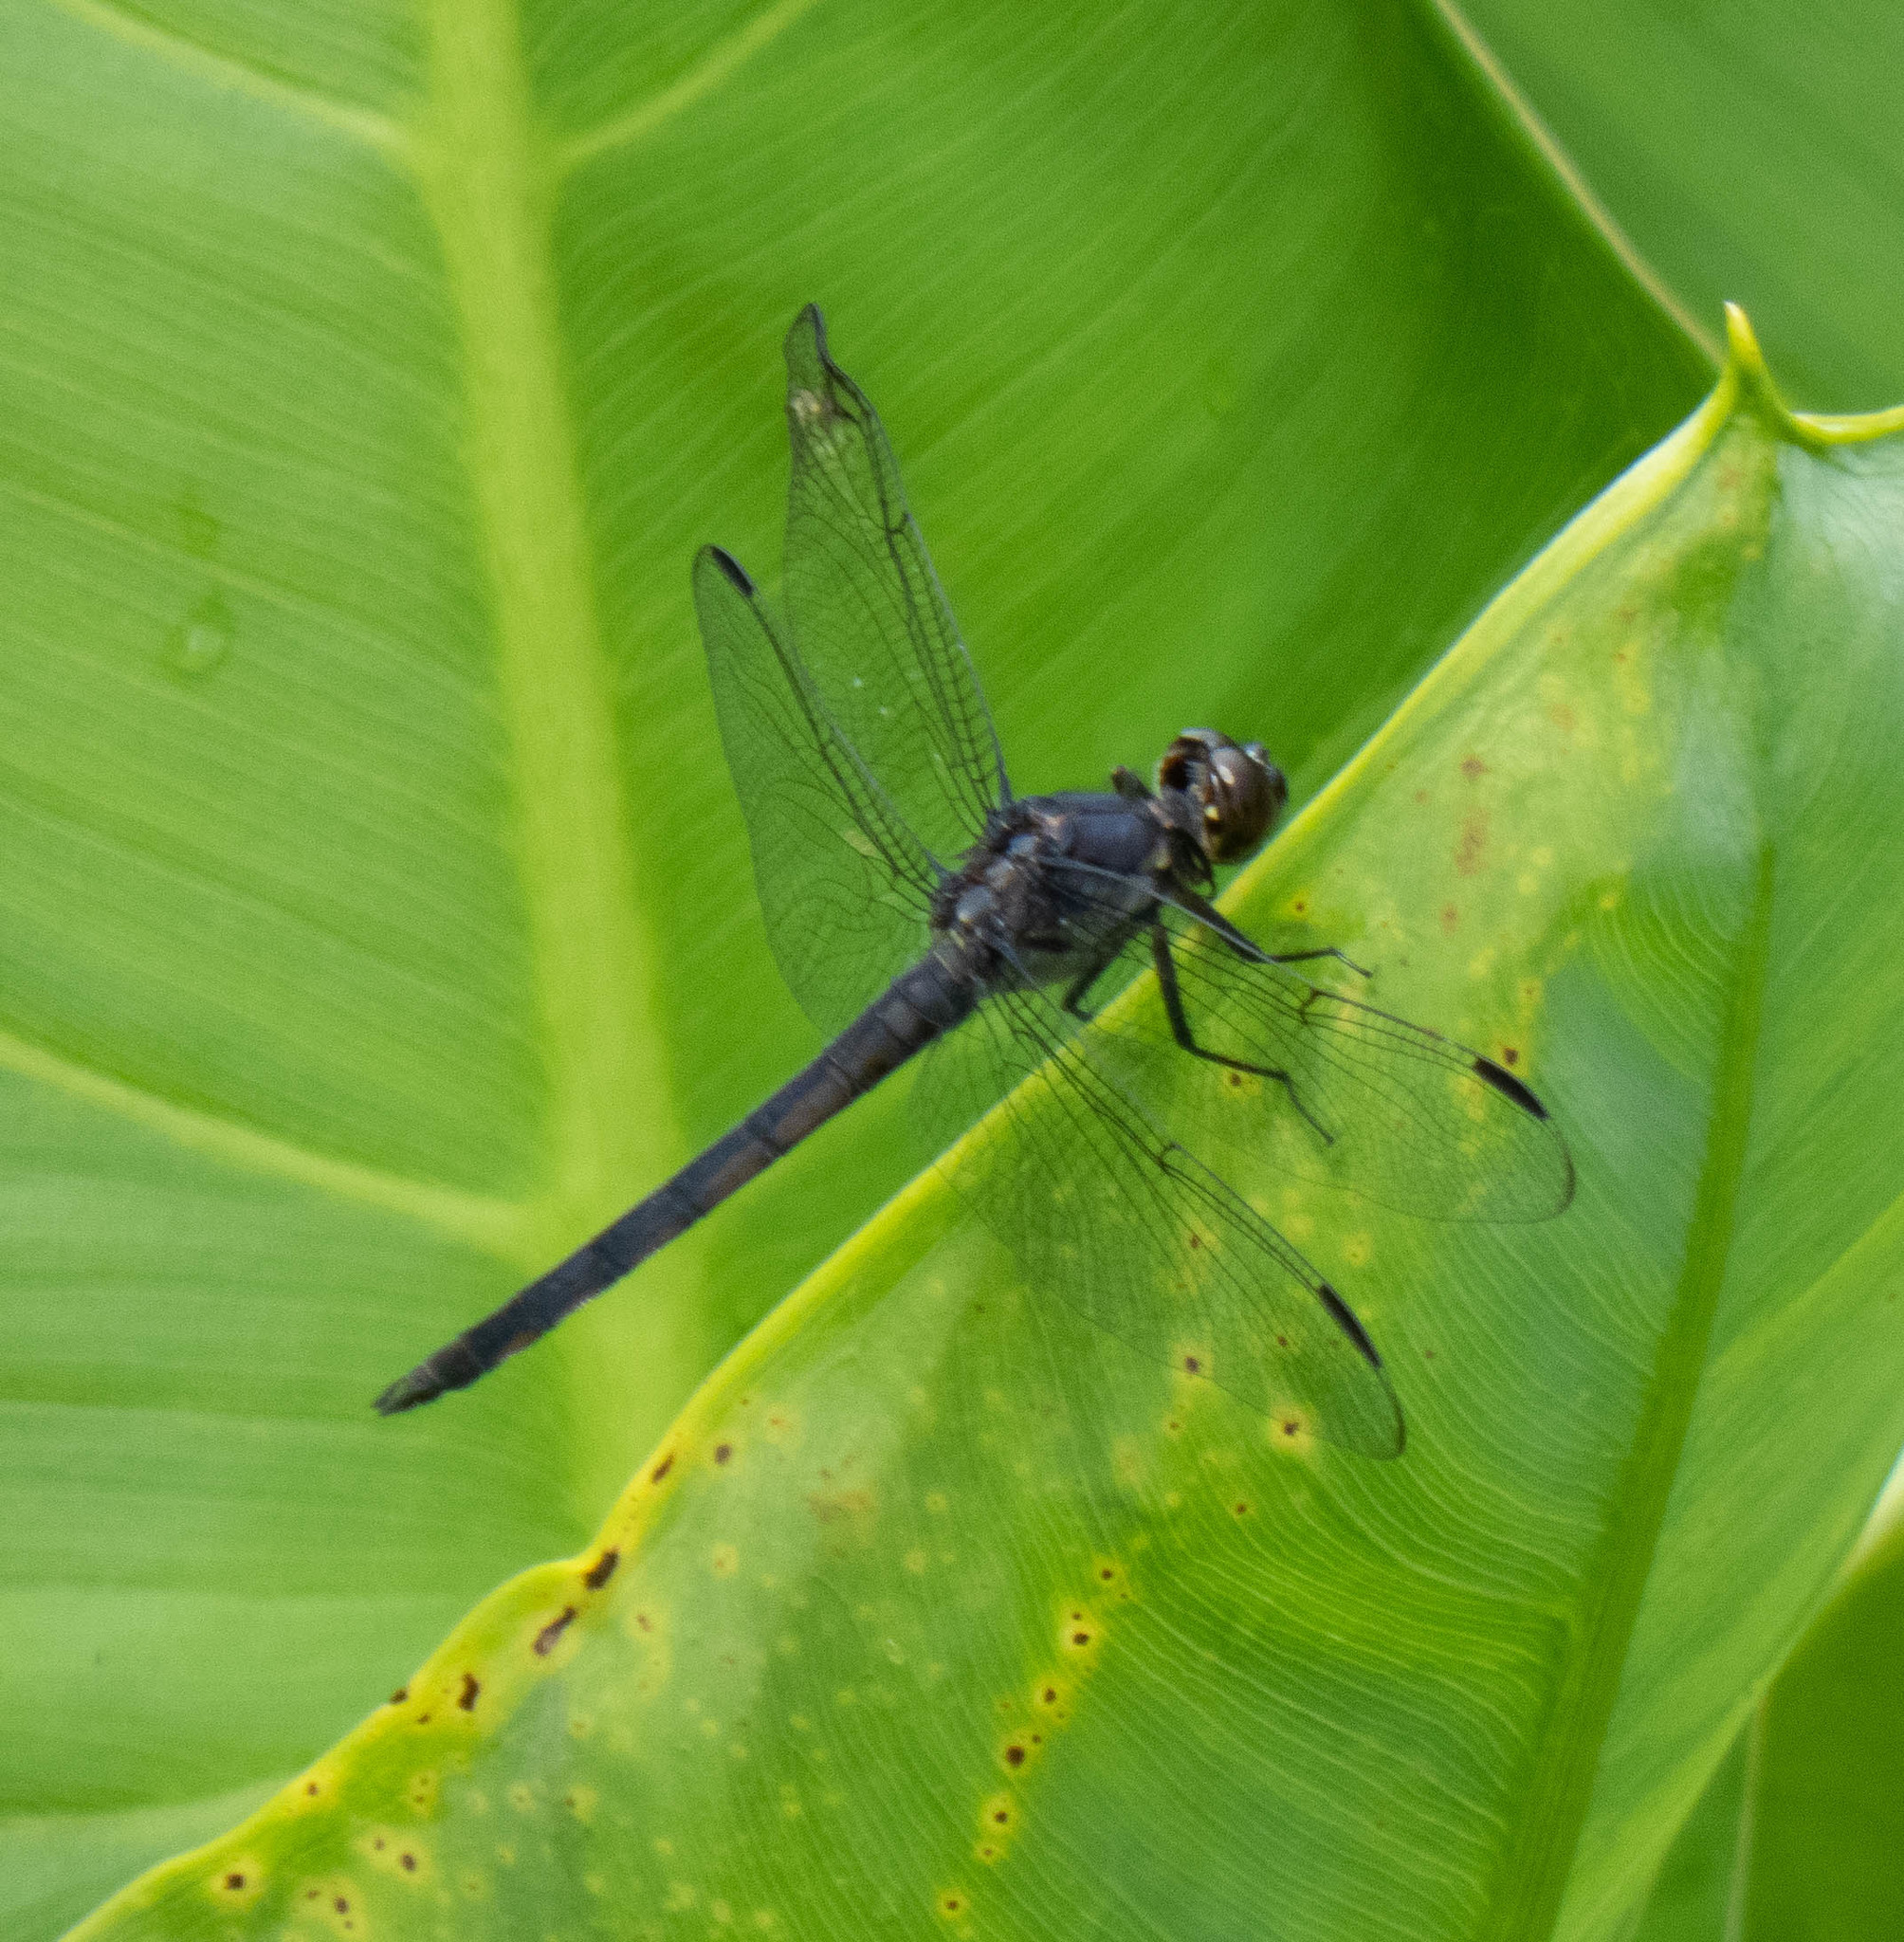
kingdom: Animalia
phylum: Arthropoda
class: Insecta
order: Odonata
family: Libellulidae
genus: Libellula
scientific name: Libellula incesta
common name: Slaty skimmer
